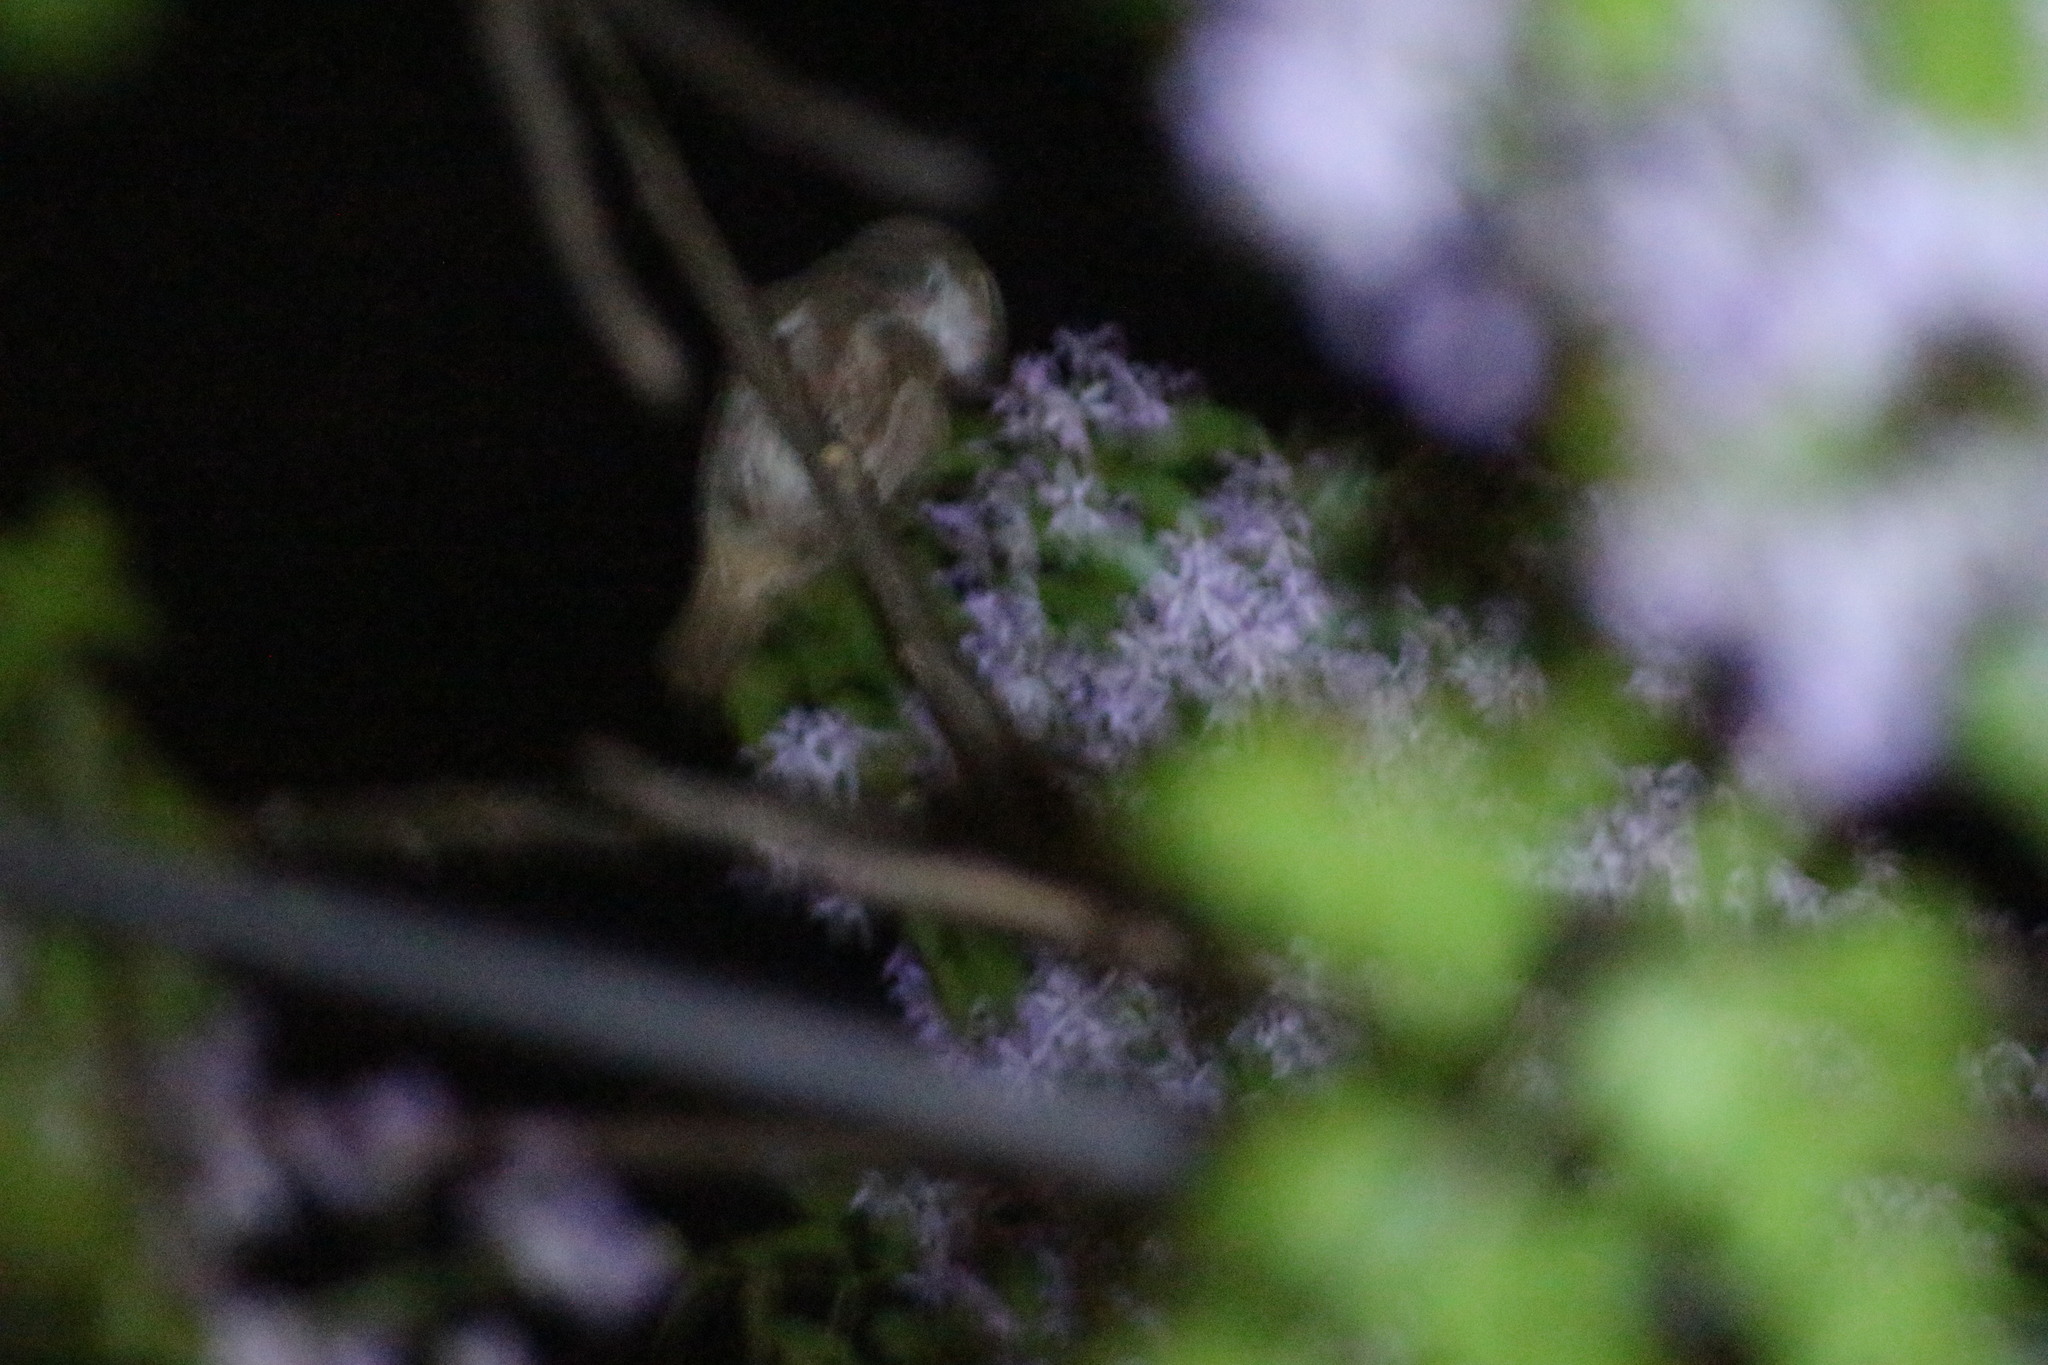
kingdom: Animalia
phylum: Chordata
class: Aves
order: Strigiformes
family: Strigidae
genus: Glaucidium
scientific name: Glaucidium brasilianum
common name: Ferruginous pygmy-owl
